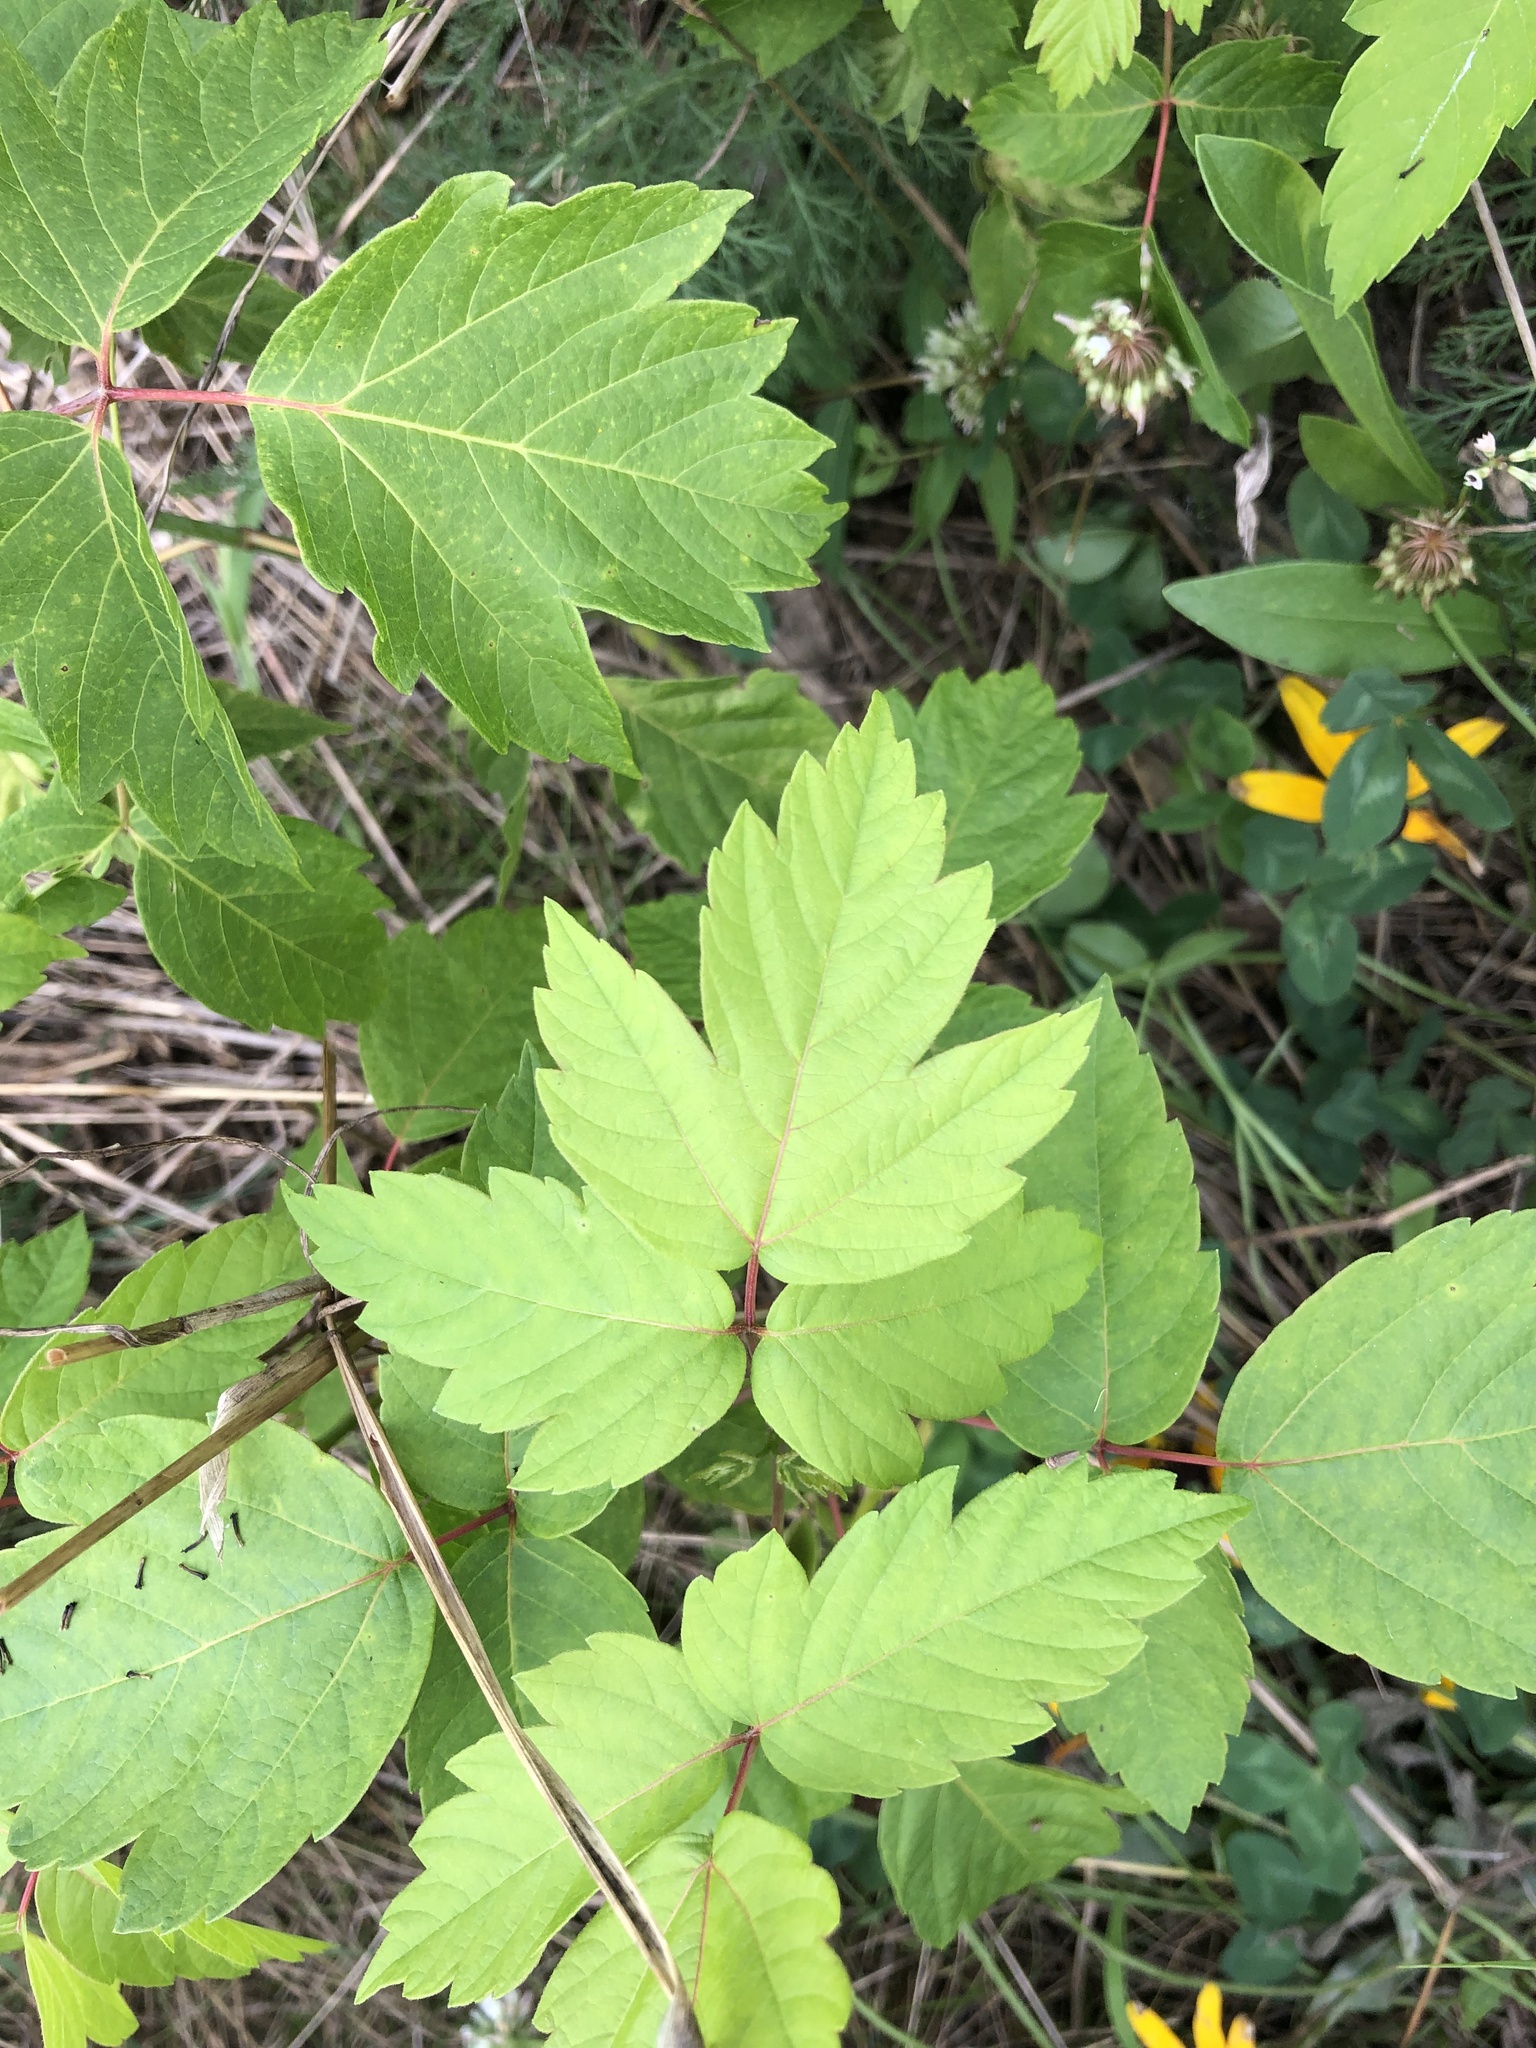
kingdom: Plantae
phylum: Tracheophyta
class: Magnoliopsida
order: Sapindales
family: Sapindaceae
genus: Acer
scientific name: Acer negundo
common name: Ashleaf maple
